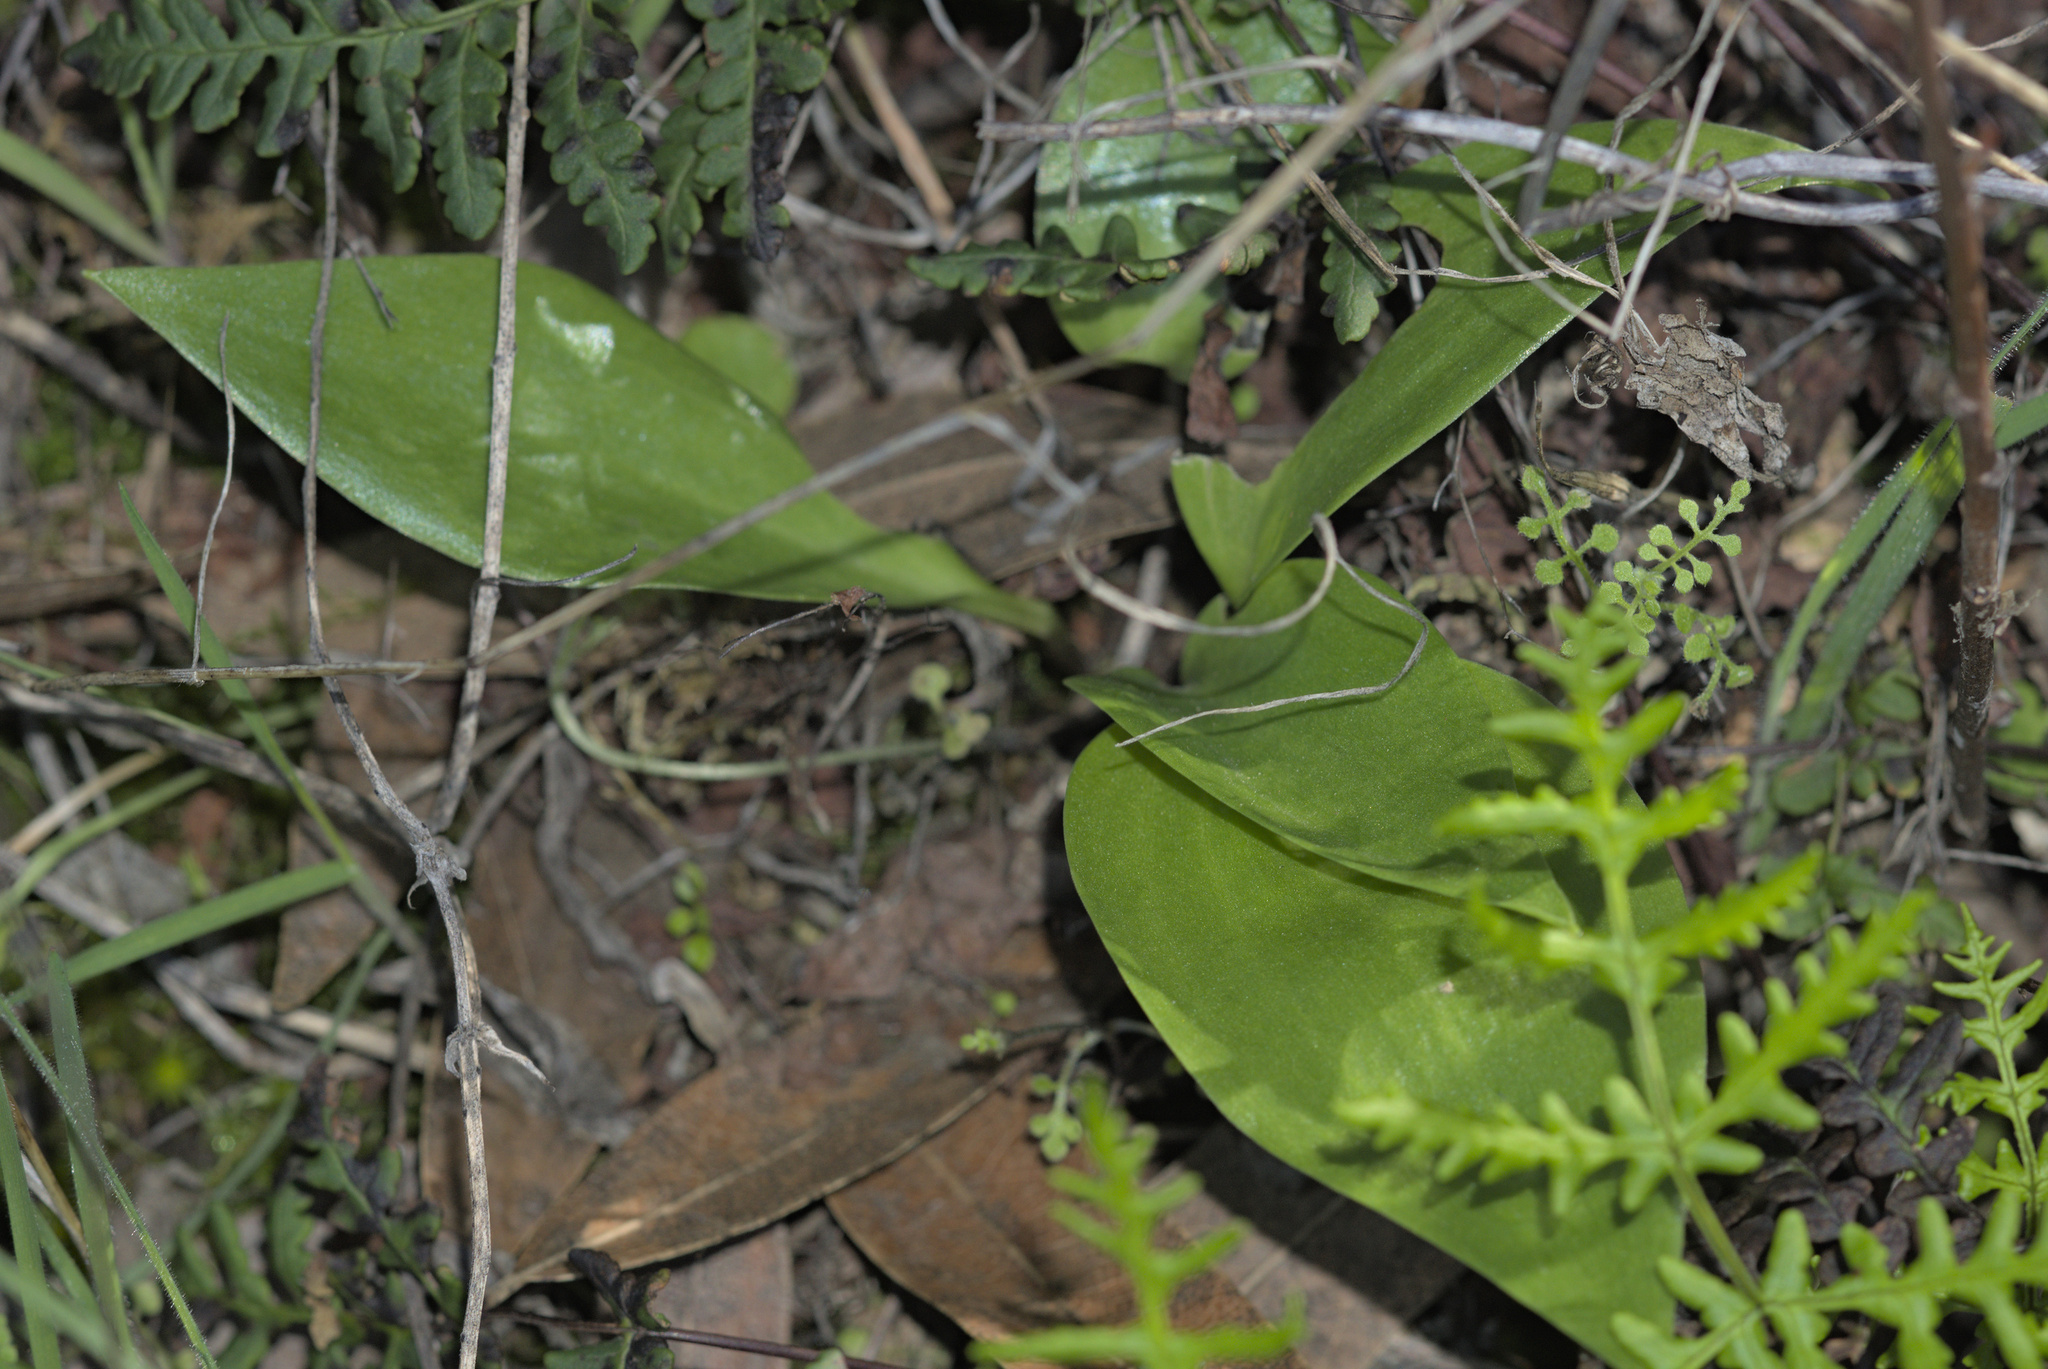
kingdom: Plantae
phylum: Tracheophyta
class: Liliopsida
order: Liliales
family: Liliaceae
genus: Fritillaria
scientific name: Fritillaria affinis
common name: Ojai fritillary
